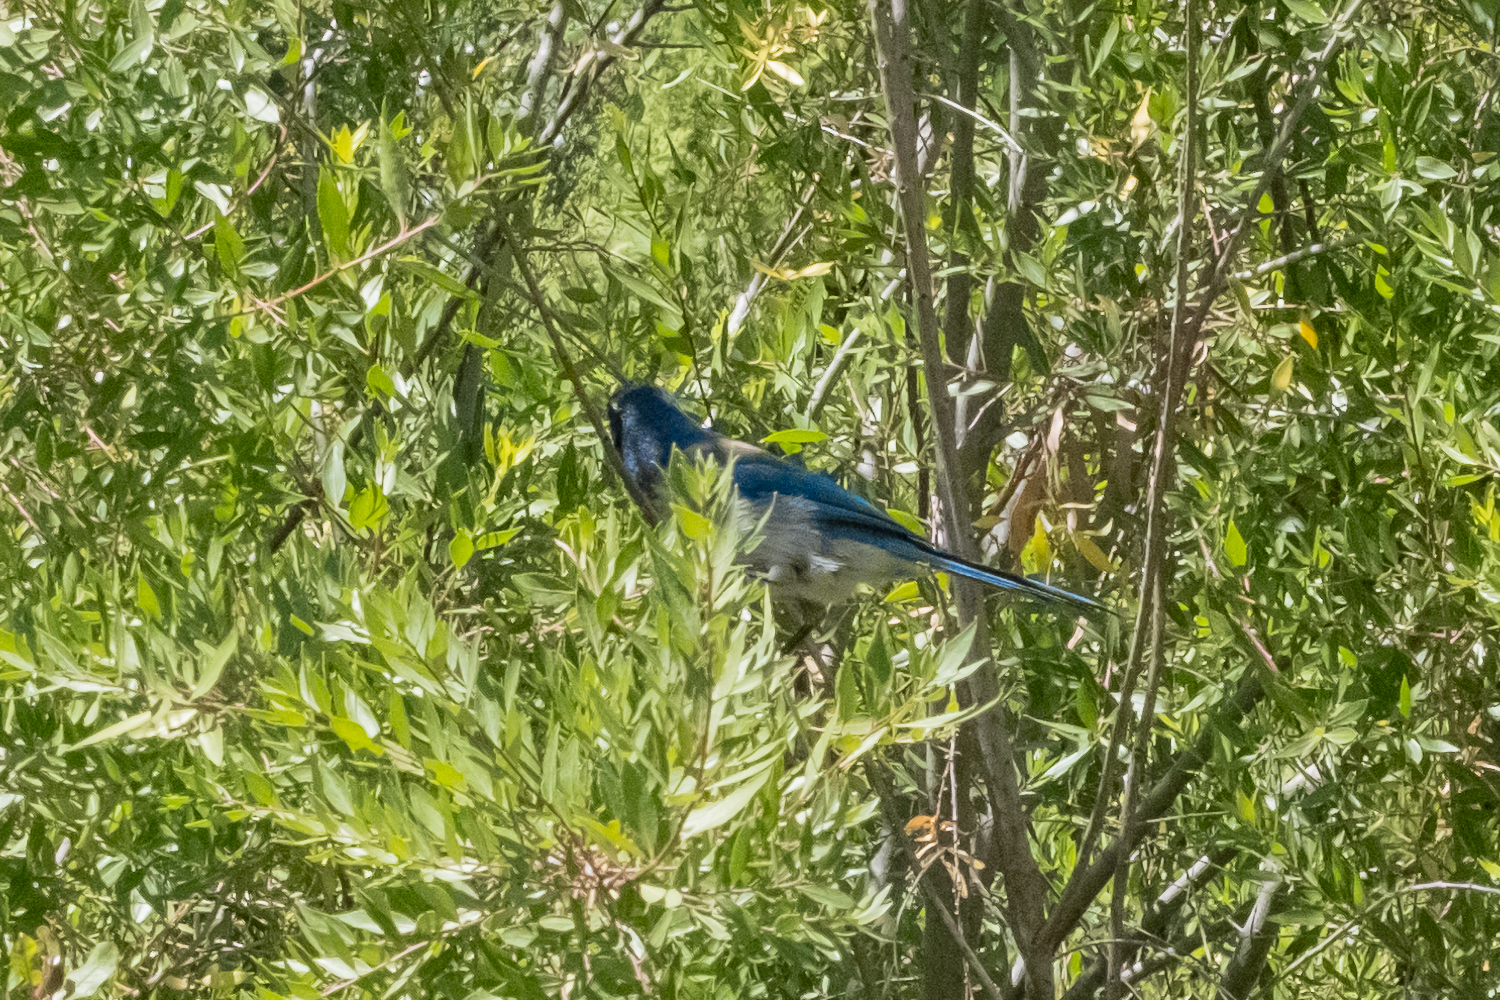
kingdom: Animalia
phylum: Chordata
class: Aves
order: Passeriformes
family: Corvidae
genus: Aphelocoma
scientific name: Aphelocoma californica
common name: California scrub-jay
